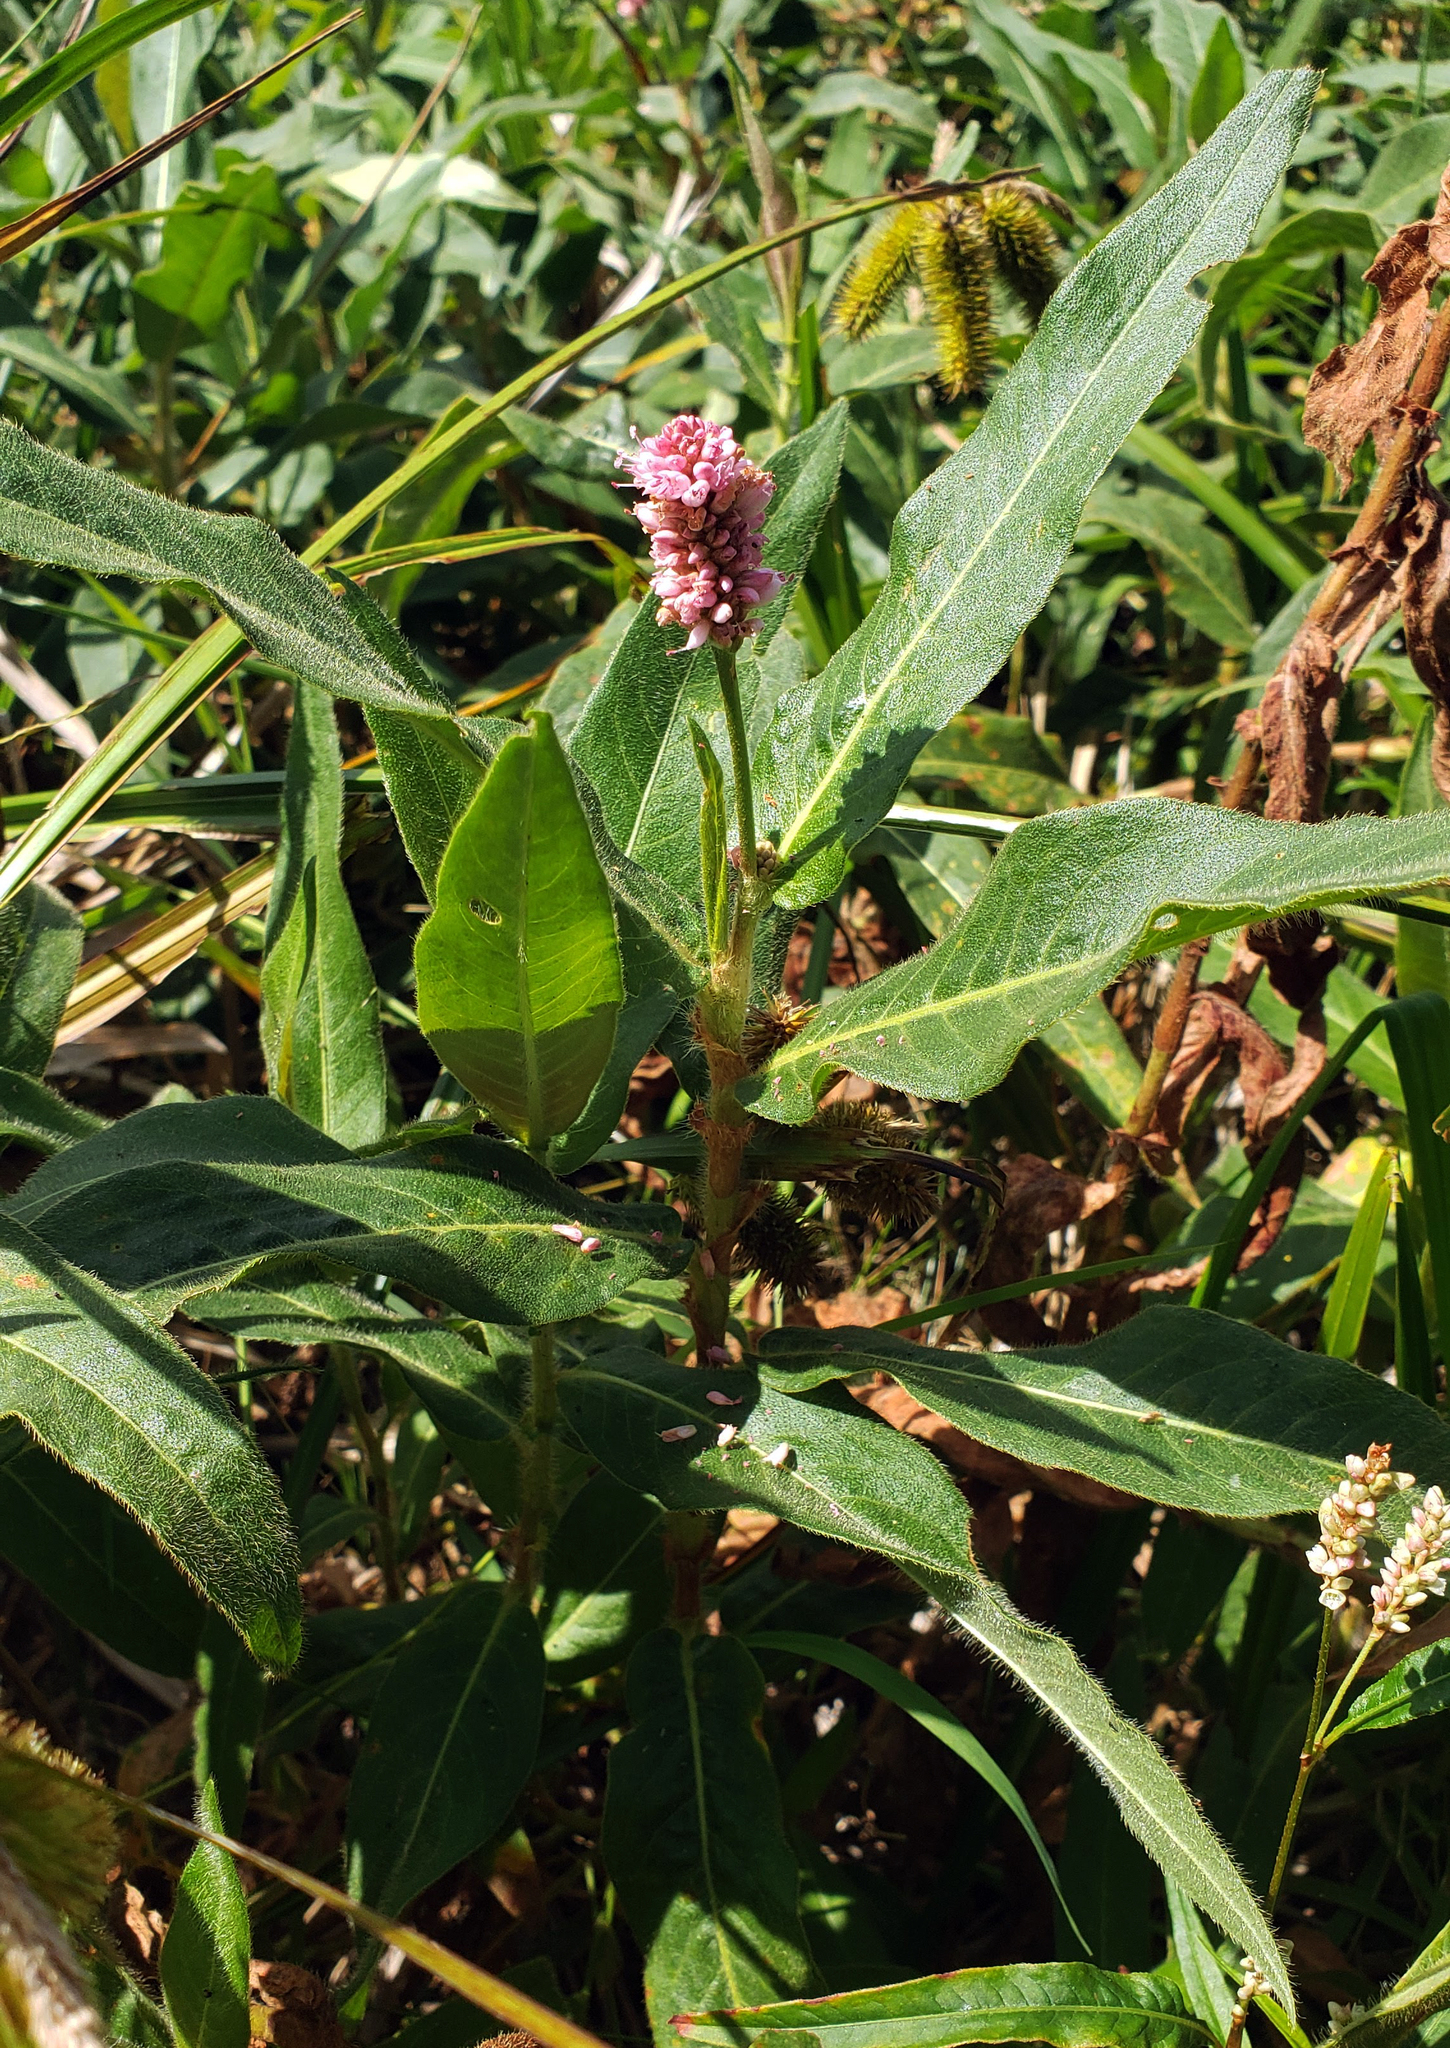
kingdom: Plantae
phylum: Tracheophyta
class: Magnoliopsida
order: Caryophyllales
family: Polygonaceae
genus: Persicaria
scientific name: Persicaria amphibia
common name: Amphibious bistort
